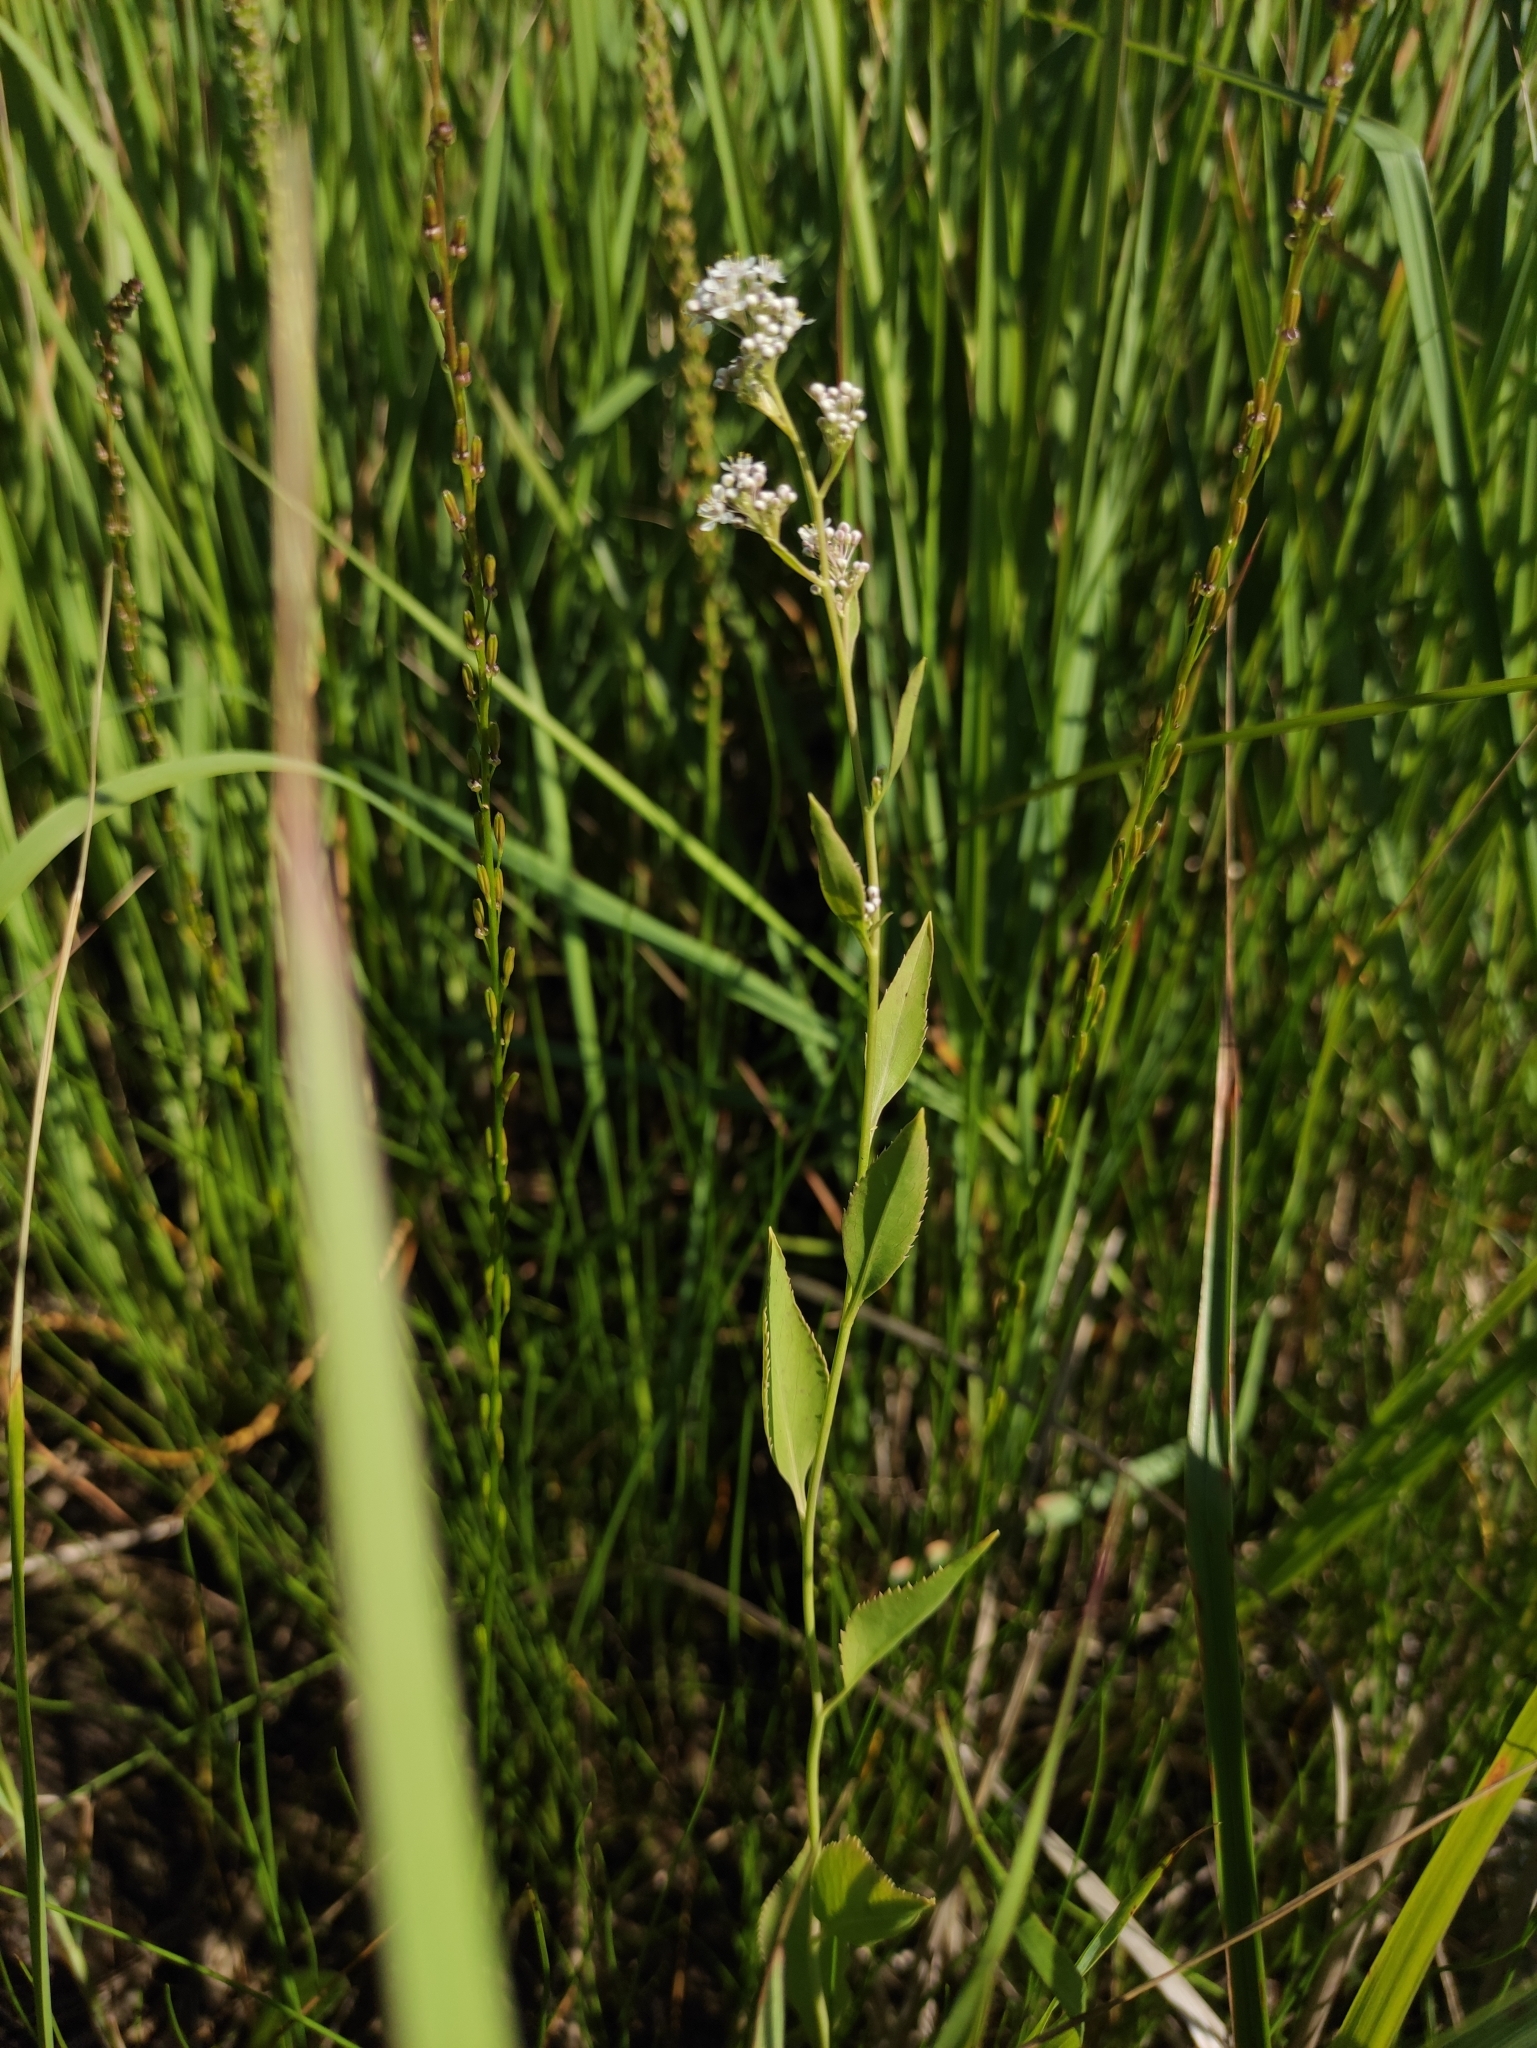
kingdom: Plantae
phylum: Tracheophyta
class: Magnoliopsida
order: Brassicales
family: Brassicaceae
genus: Lepidium
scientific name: Lepidium latifolium
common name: Dittander
